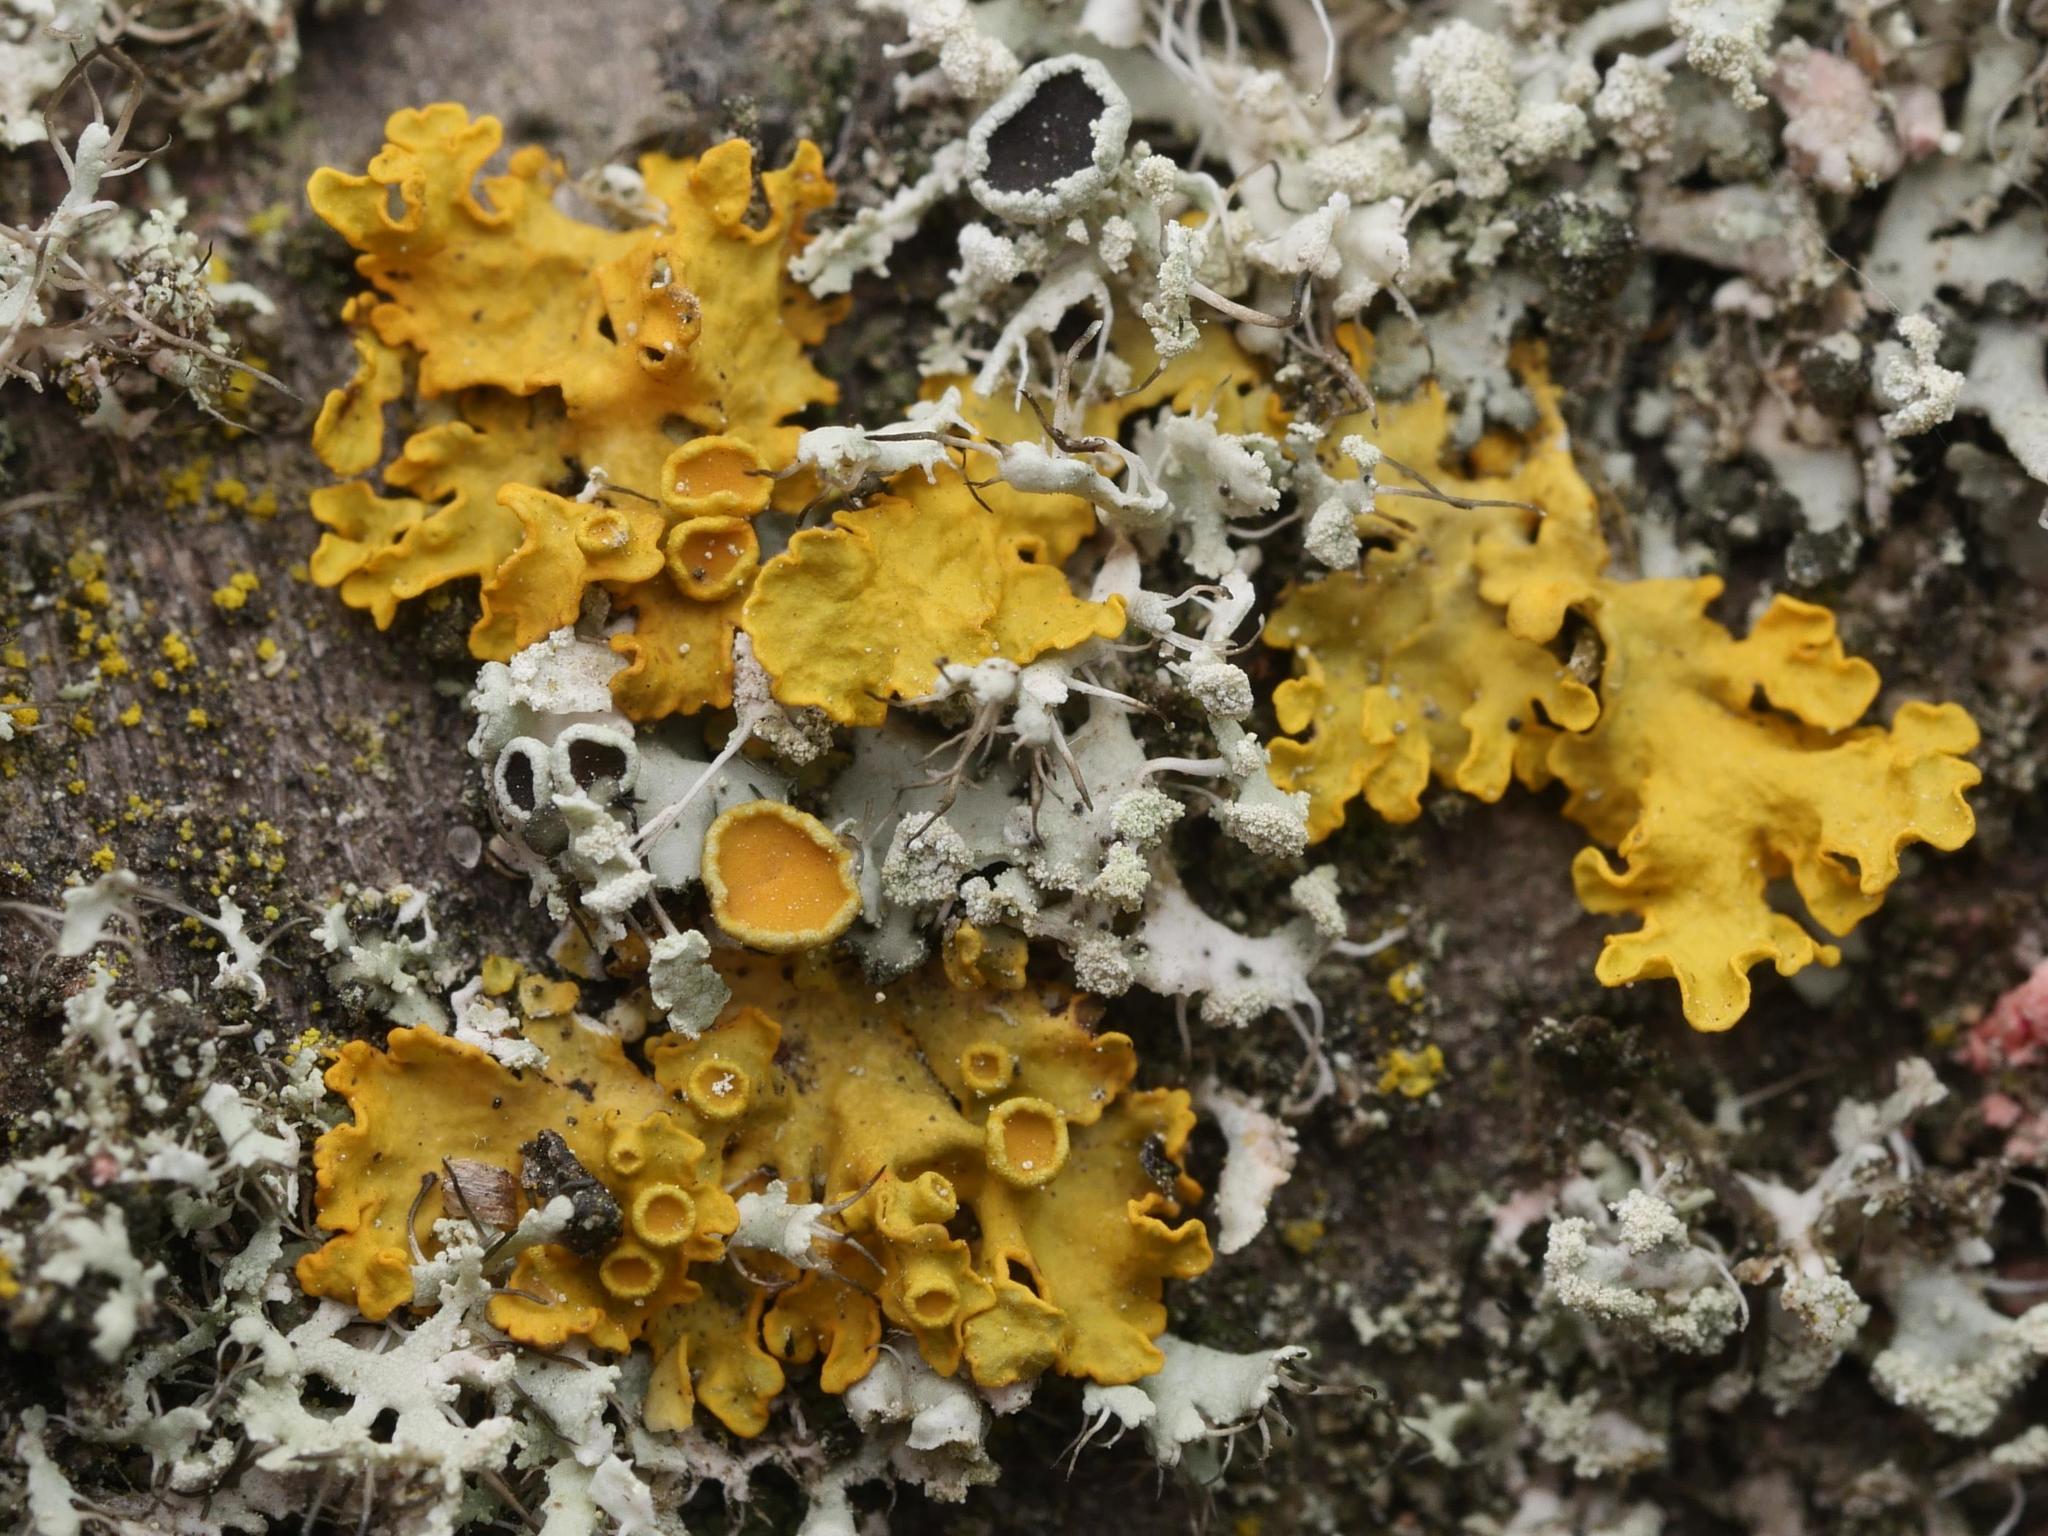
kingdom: Fungi
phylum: Ascomycota
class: Lecanoromycetes
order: Teloschistales
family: Teloschistaceae
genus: Xanthoria
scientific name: Xanthoria parietina
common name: Common orange lichen
